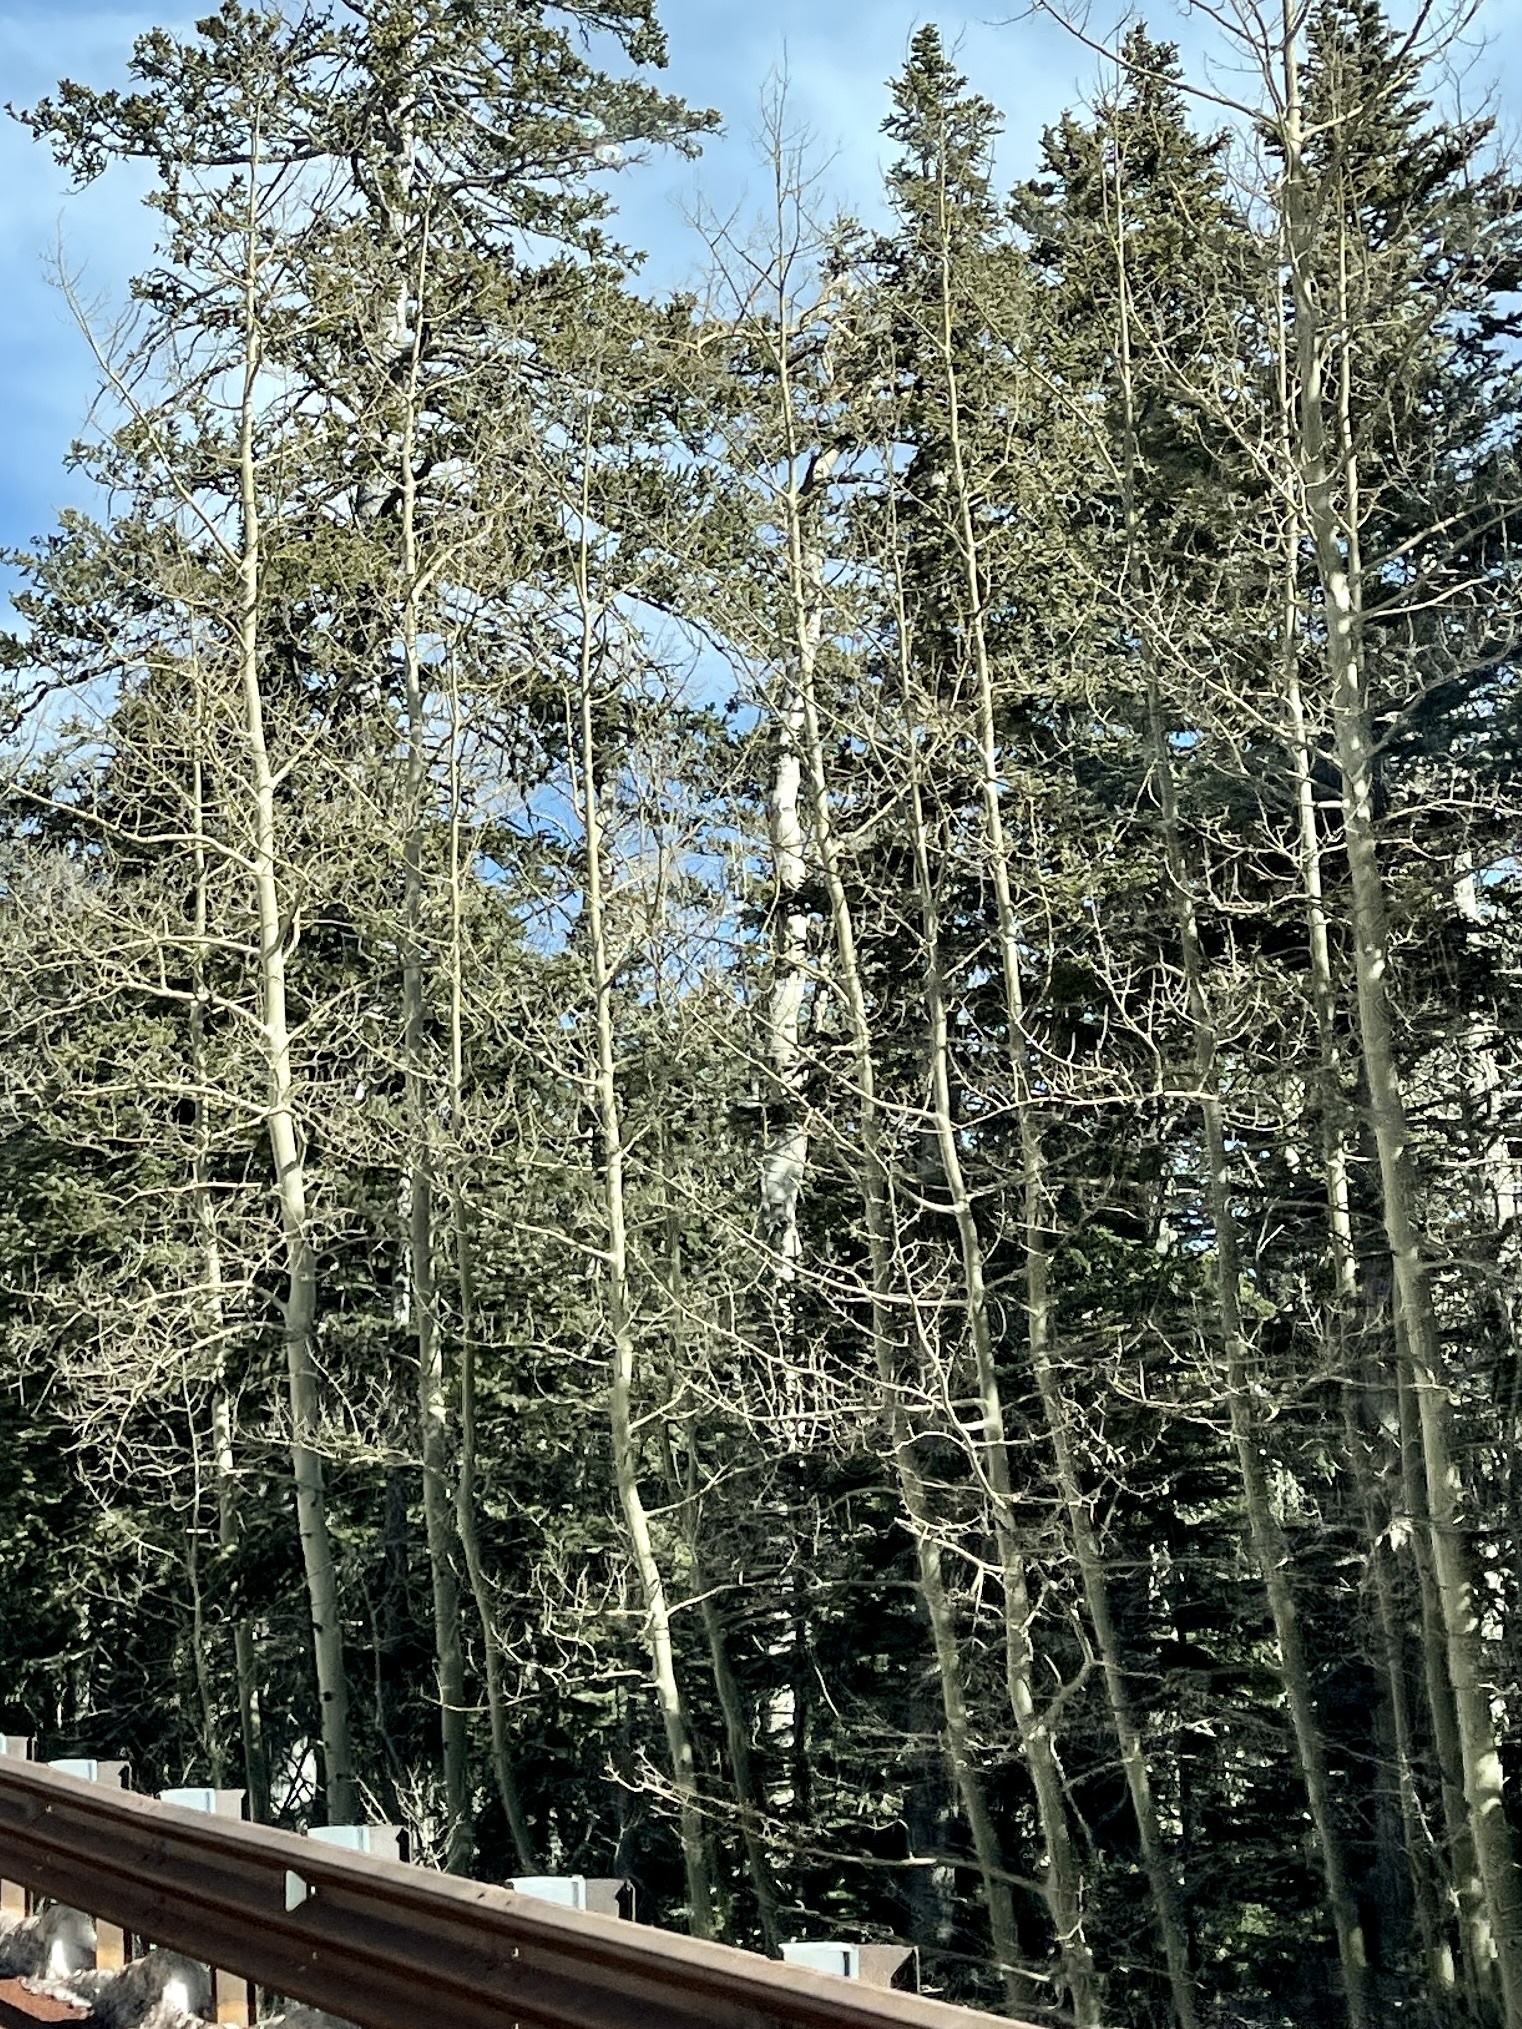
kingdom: Plantae
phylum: Tracheophyta
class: Magnoliopsida
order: Malpighiales
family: Salicaceae
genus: Populus
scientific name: Populus tremuloides
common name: Quaking aspen
